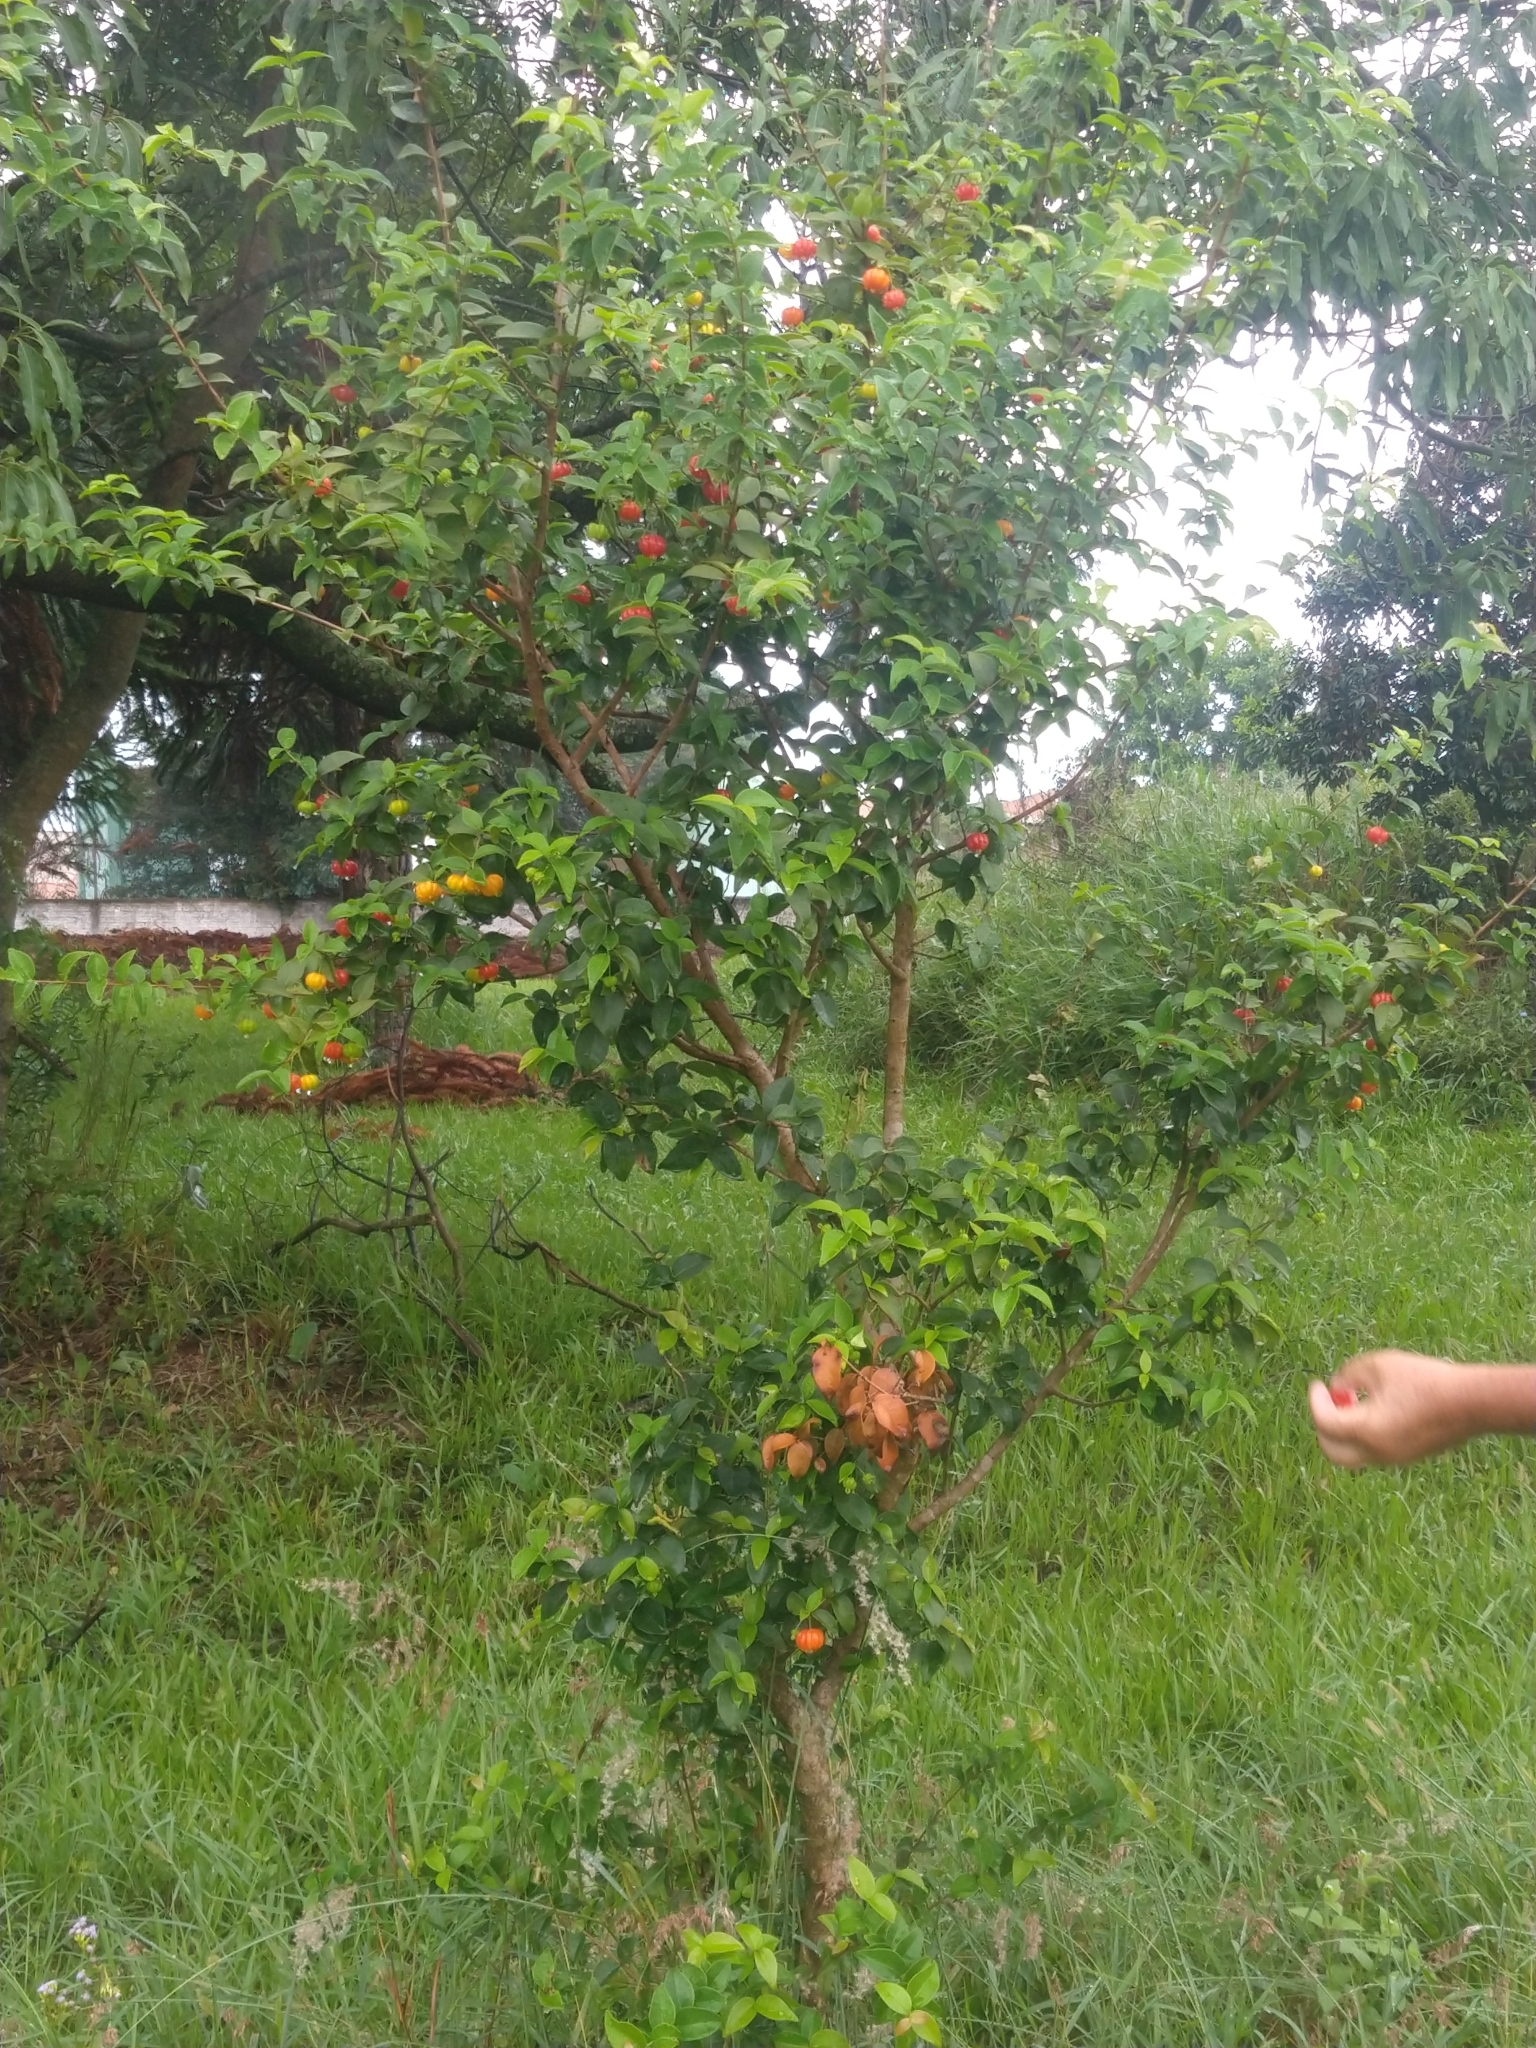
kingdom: Plantae
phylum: Tracheophyta
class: Magnoliopsida
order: Myrtales
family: Myrtaceae
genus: Eugenia
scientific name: Eugenia uniflora
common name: Surinam cherry
